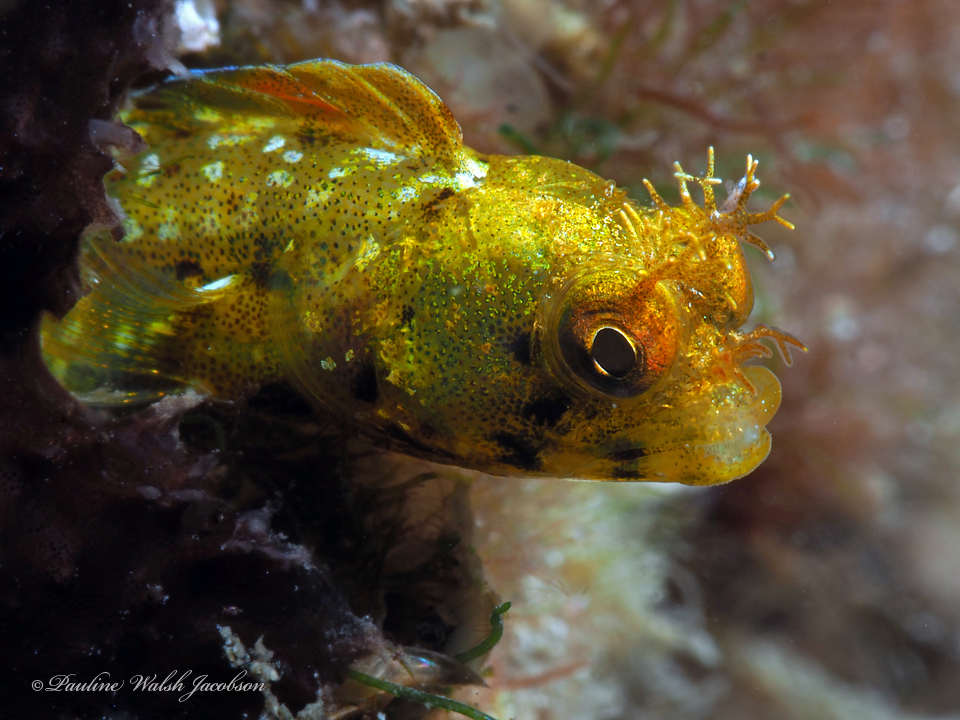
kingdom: Animalia
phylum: Chordata
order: Perciformes
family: Chaenopsidae
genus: Acanthemblemaria
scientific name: Acanthemblemaria aspera
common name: Roughhead blenny
